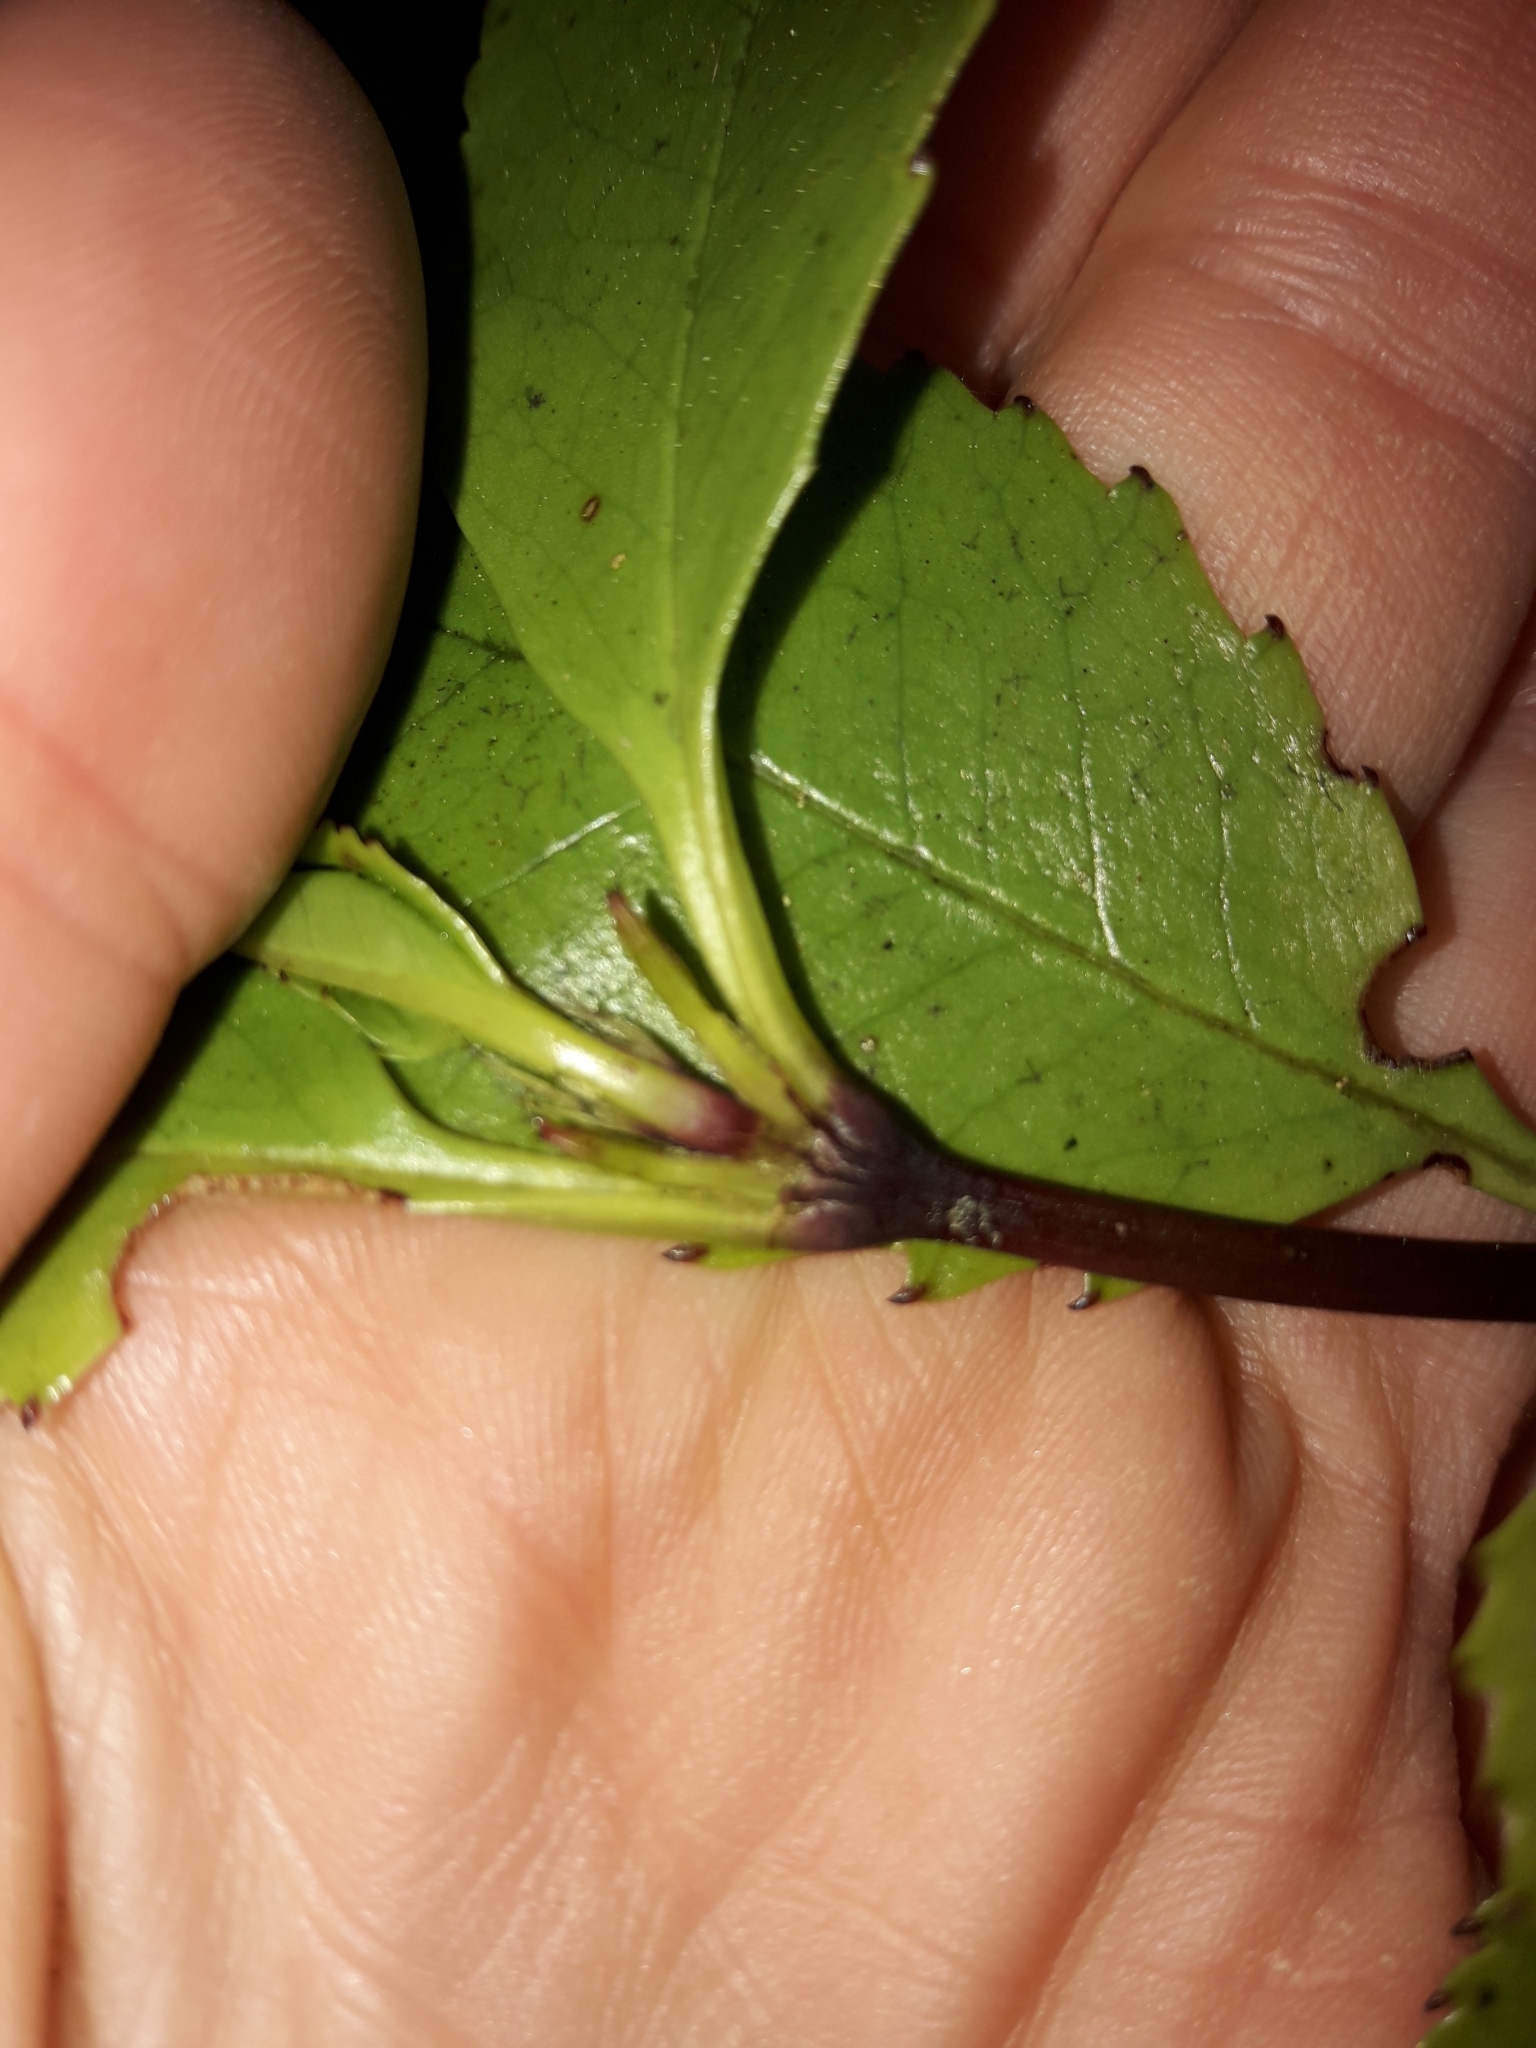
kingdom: Plantae
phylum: Tracheophyta
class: Magnoliopsida
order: Chloranthales
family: Chloranthaceae
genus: Ascarina
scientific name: Ascarina lucida
